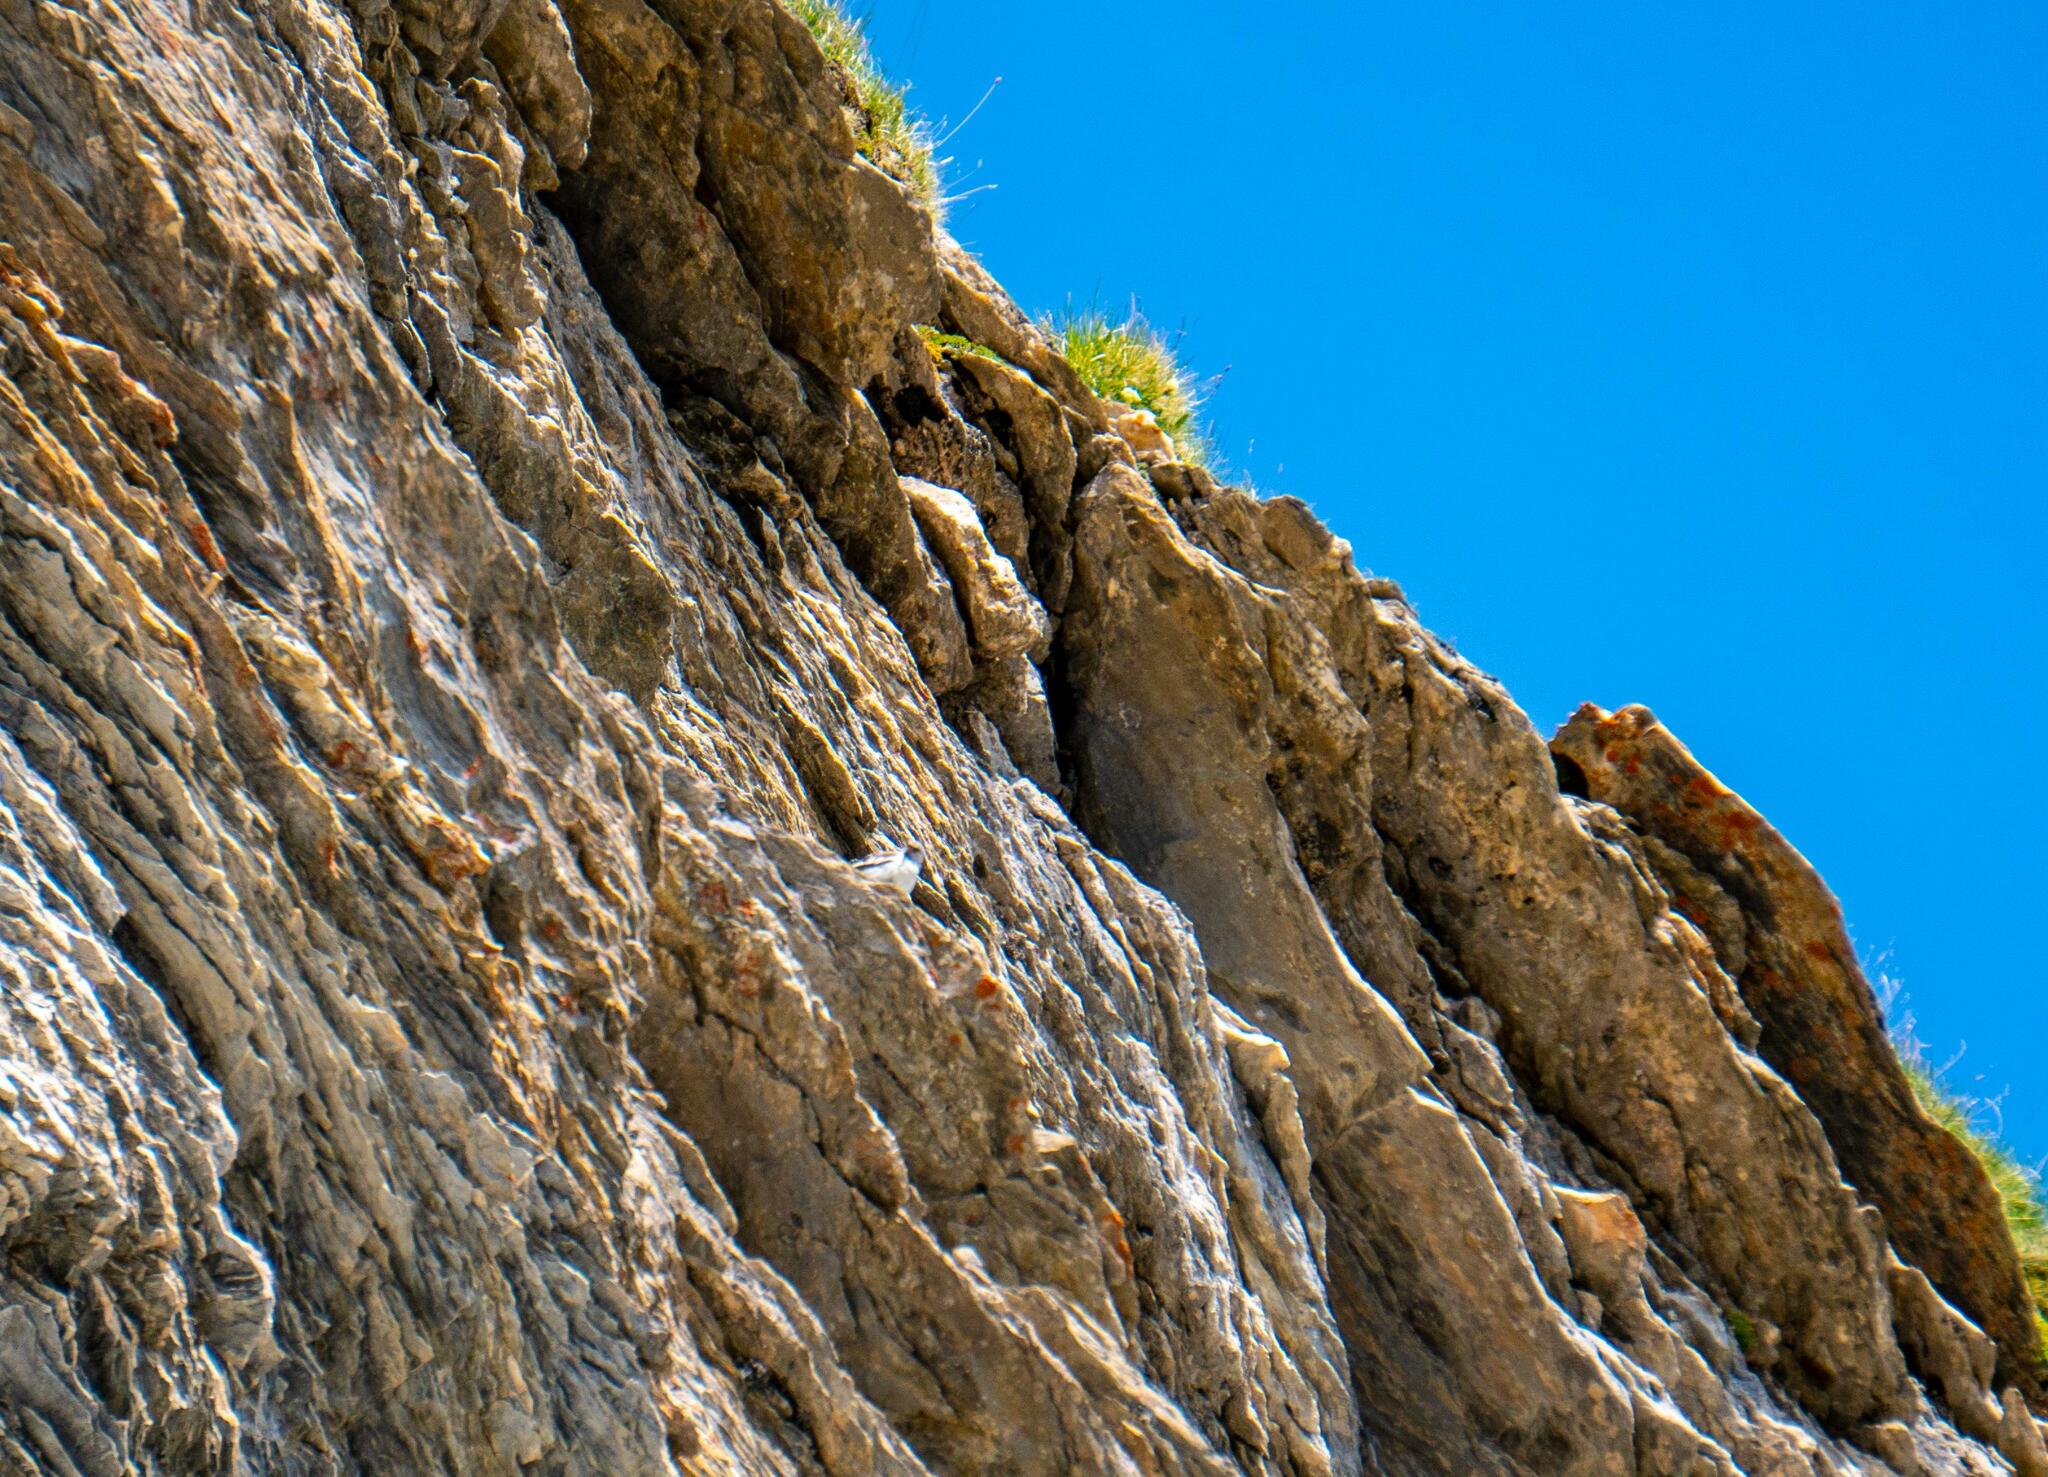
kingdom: Animalia
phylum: Chordata
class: Aves
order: Passeriformes
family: Passeridae
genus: Montifringilla
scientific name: Montifringilla nivalis
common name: White-winged snowfinch
